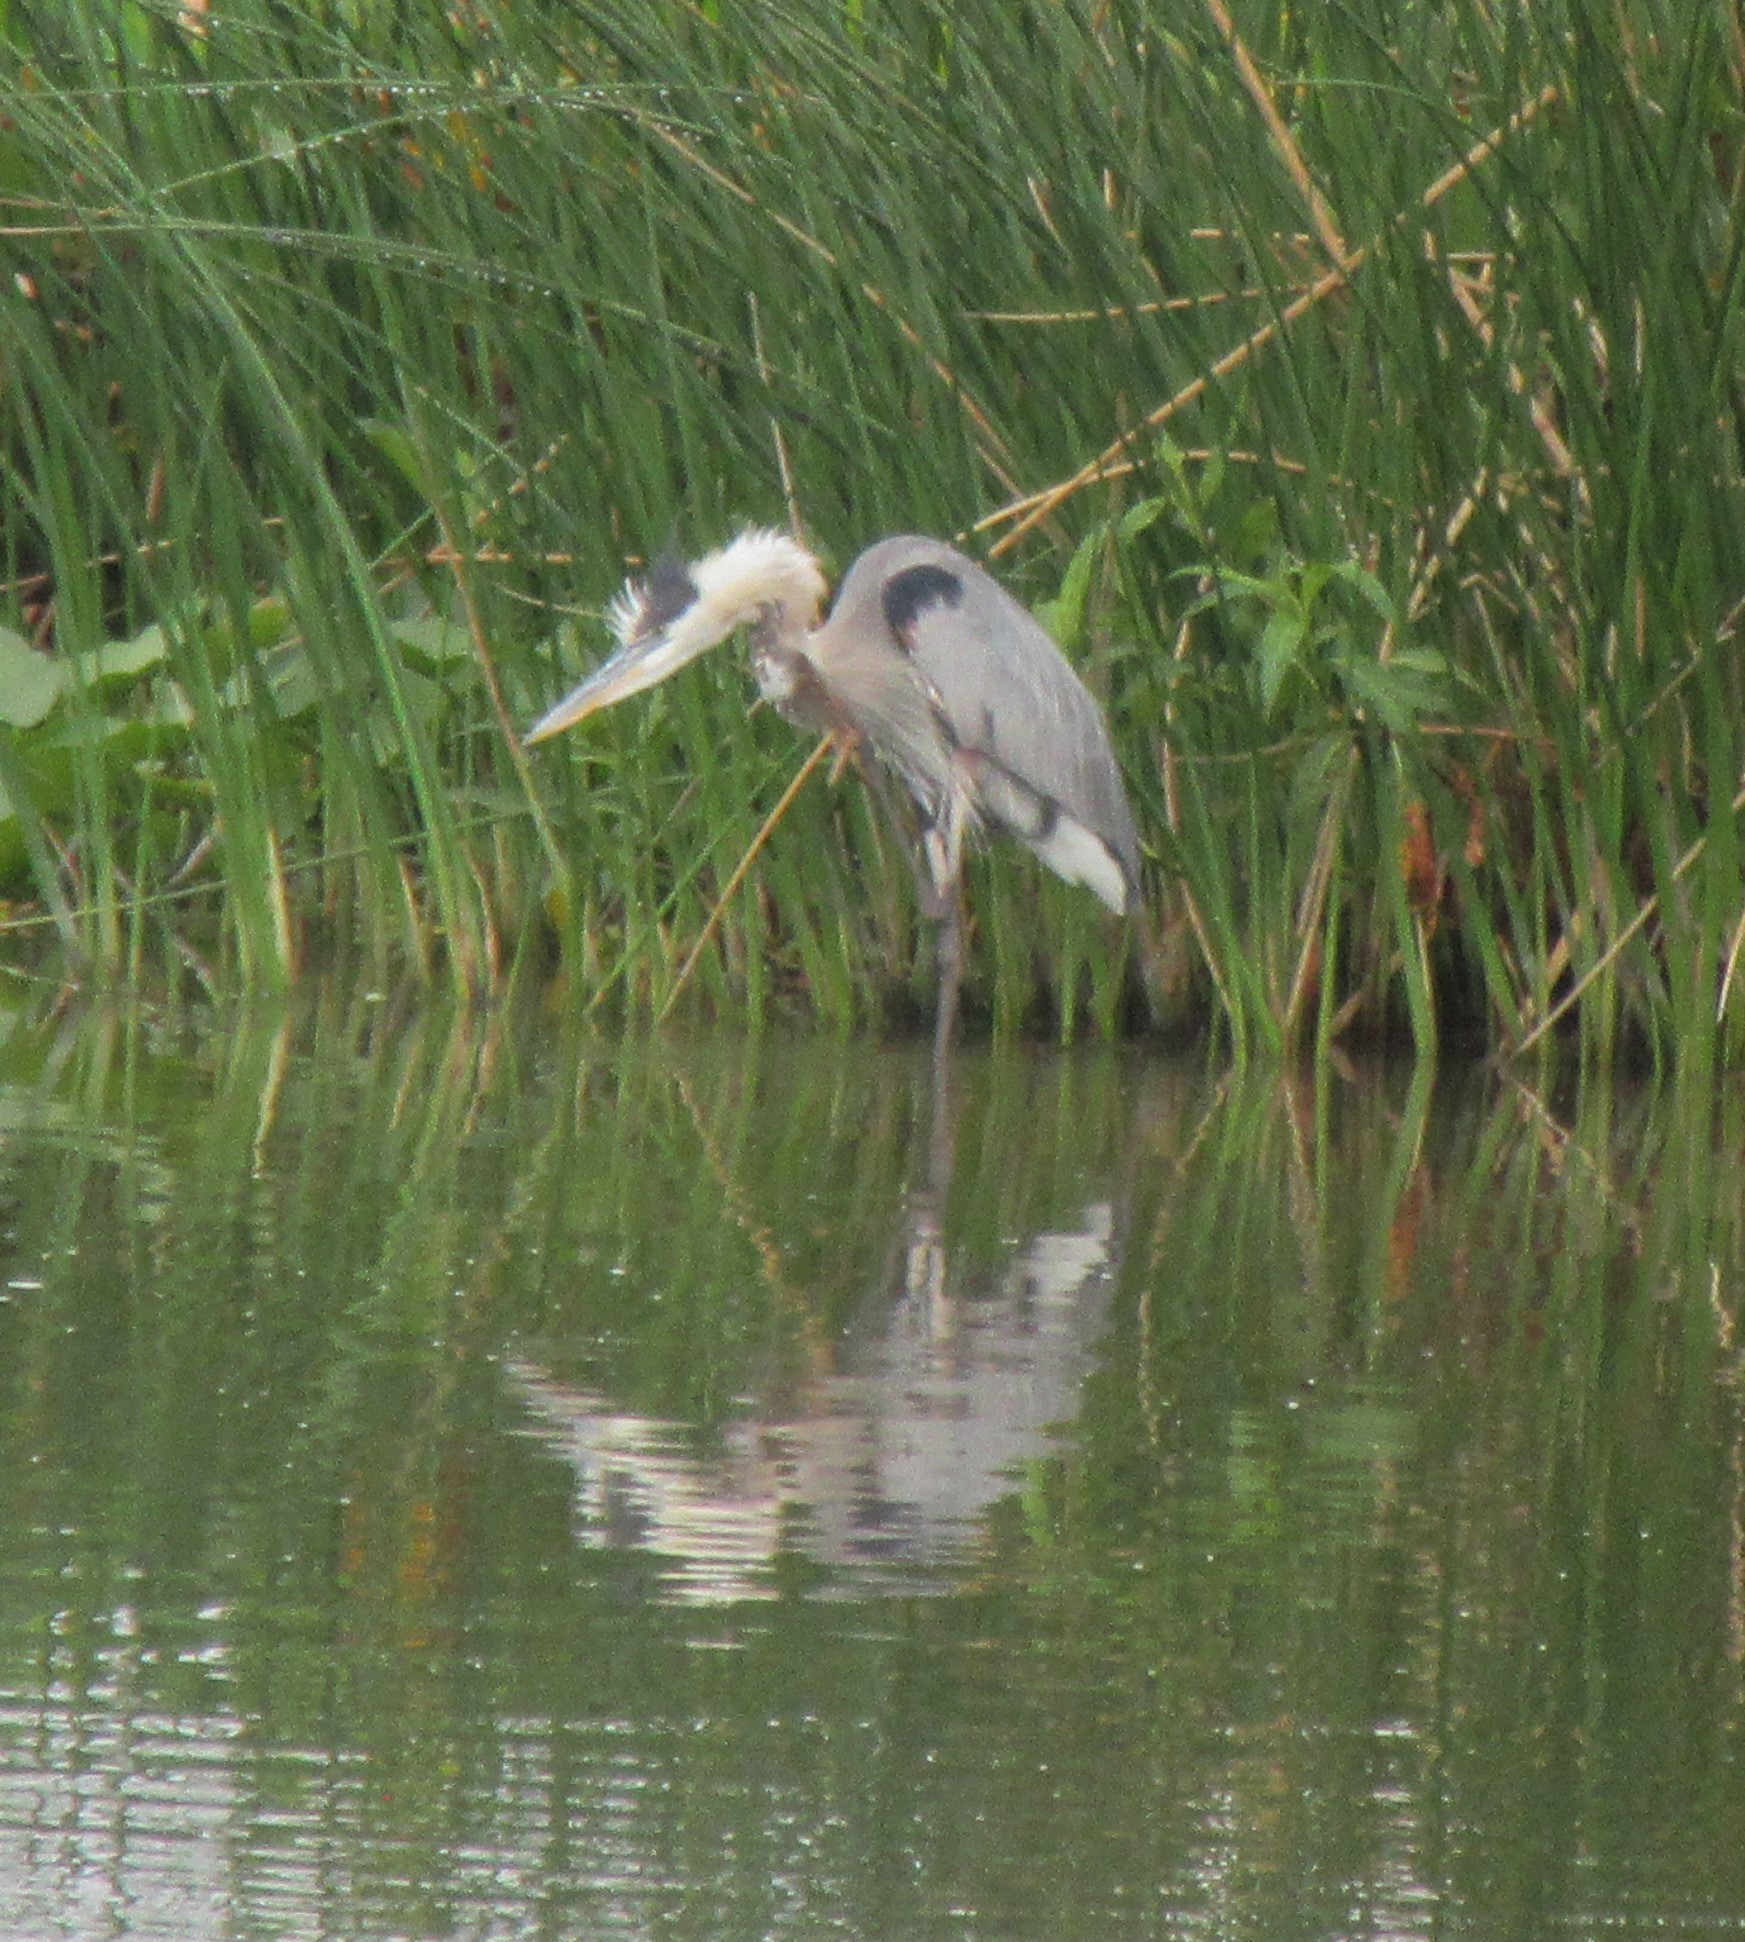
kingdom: Animalia
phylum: Chordata
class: Aves
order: Pelecaniformes
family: Ardeidae
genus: Ardea
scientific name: Ardea herodias
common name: Great blue heron
